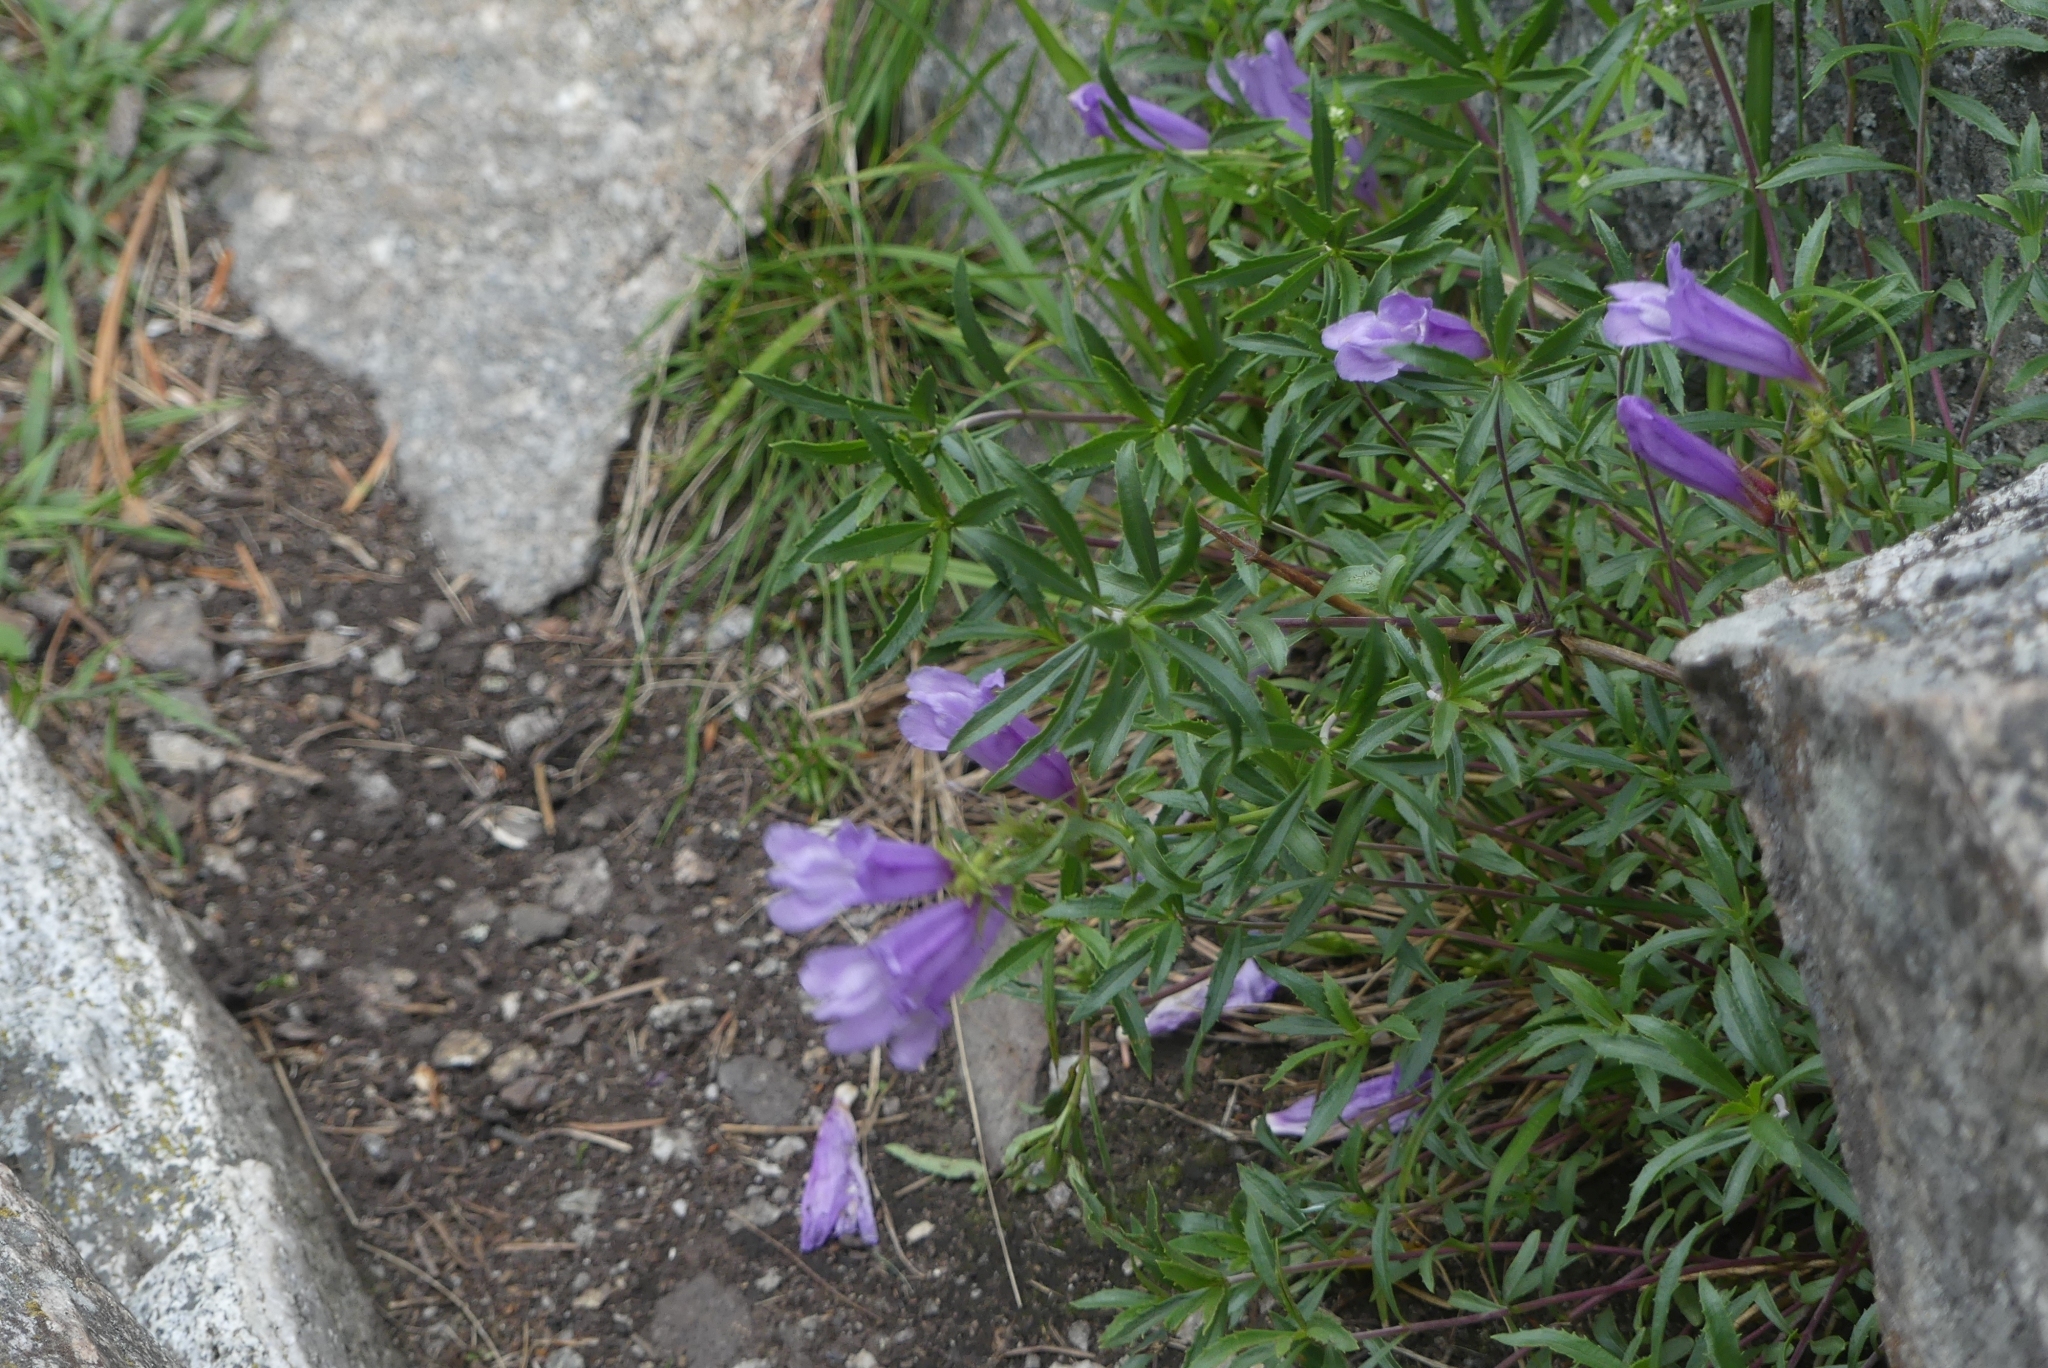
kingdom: Plantae
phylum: Tracheophyta
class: Magnoliopsida
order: Lamiales
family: Plantaginaceae
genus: Penstemon
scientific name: Penstemon fruticosus
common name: Bush penstemon
